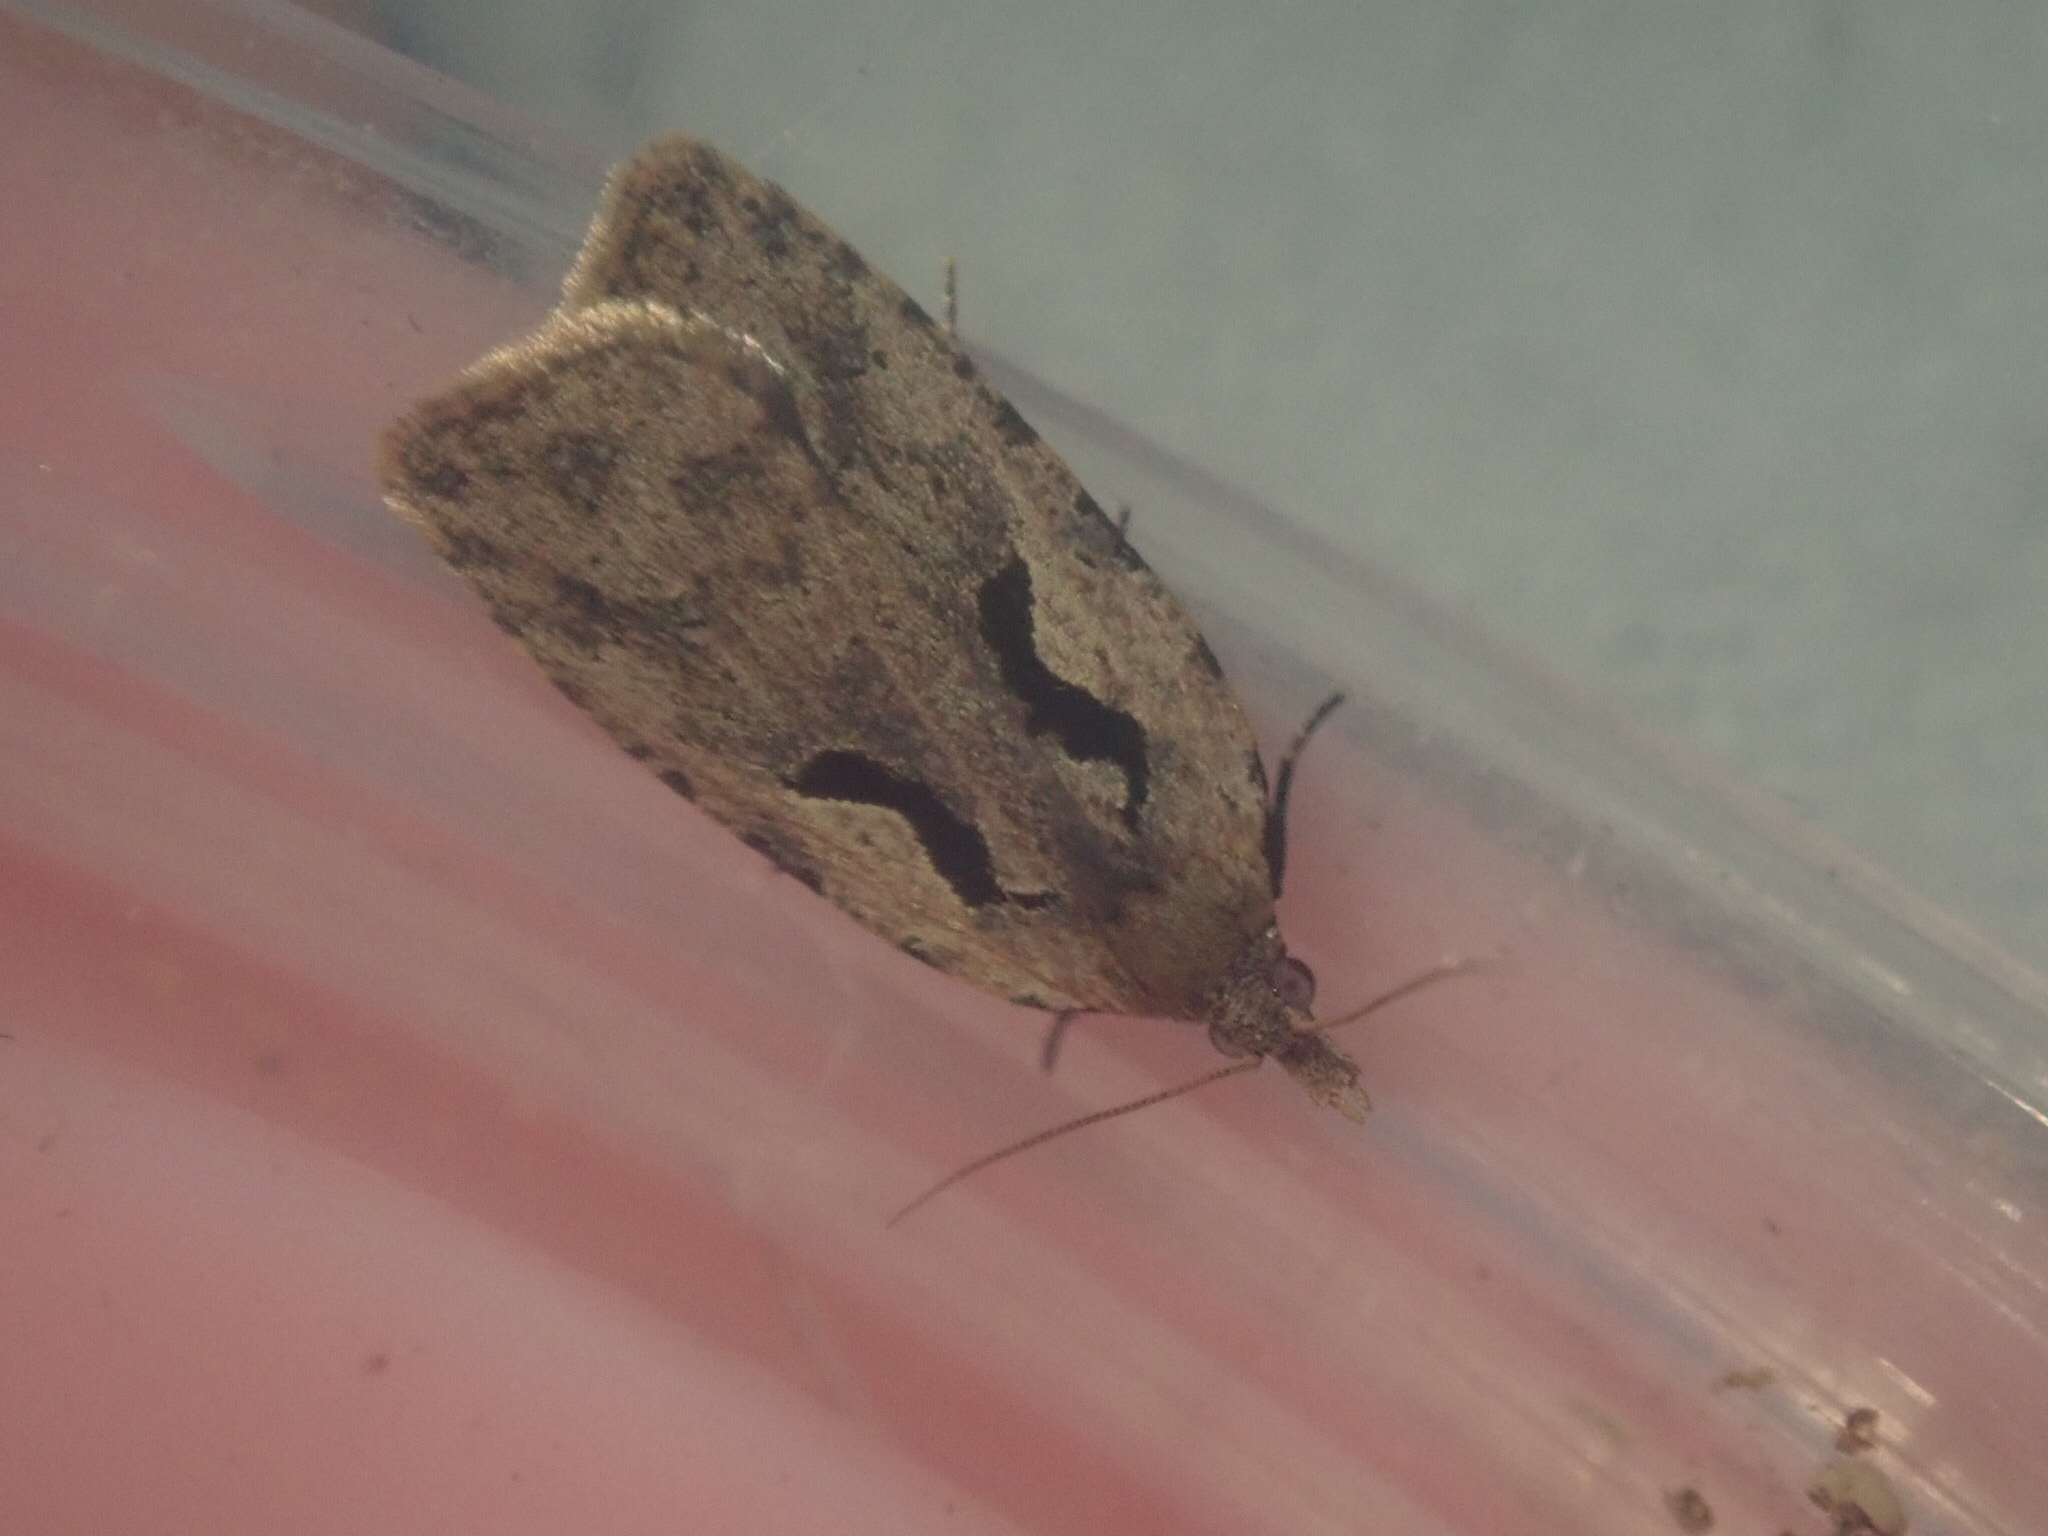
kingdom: Animalia
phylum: Arthropoda
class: Insecta
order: Lepidoptera
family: Tortricidae
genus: Cnephasia
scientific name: Cnephasia jactatana
